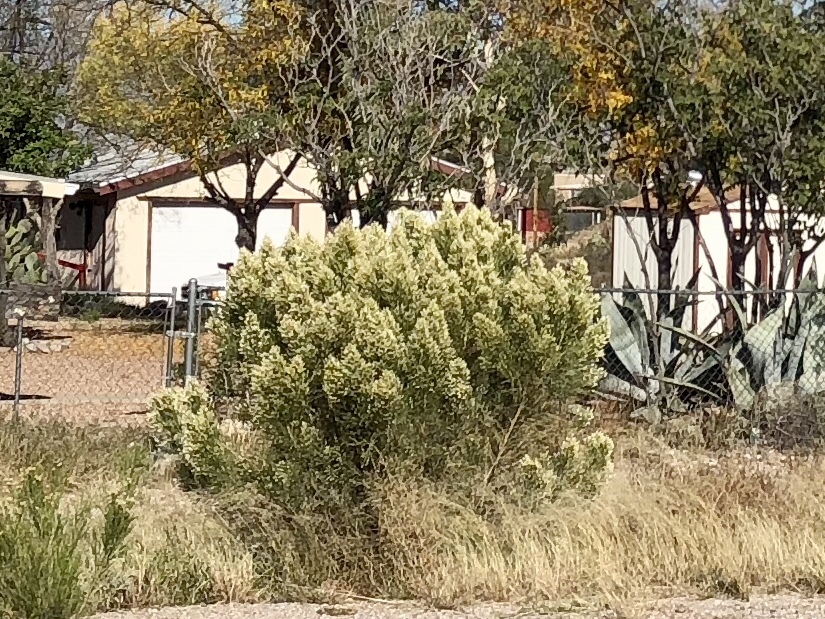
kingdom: Plantae
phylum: Tracheophyta
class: Magnoliopsida
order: Asterales
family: Asteraceae
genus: Baccharis
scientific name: Baccharis sarothroides
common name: Desert-broom
